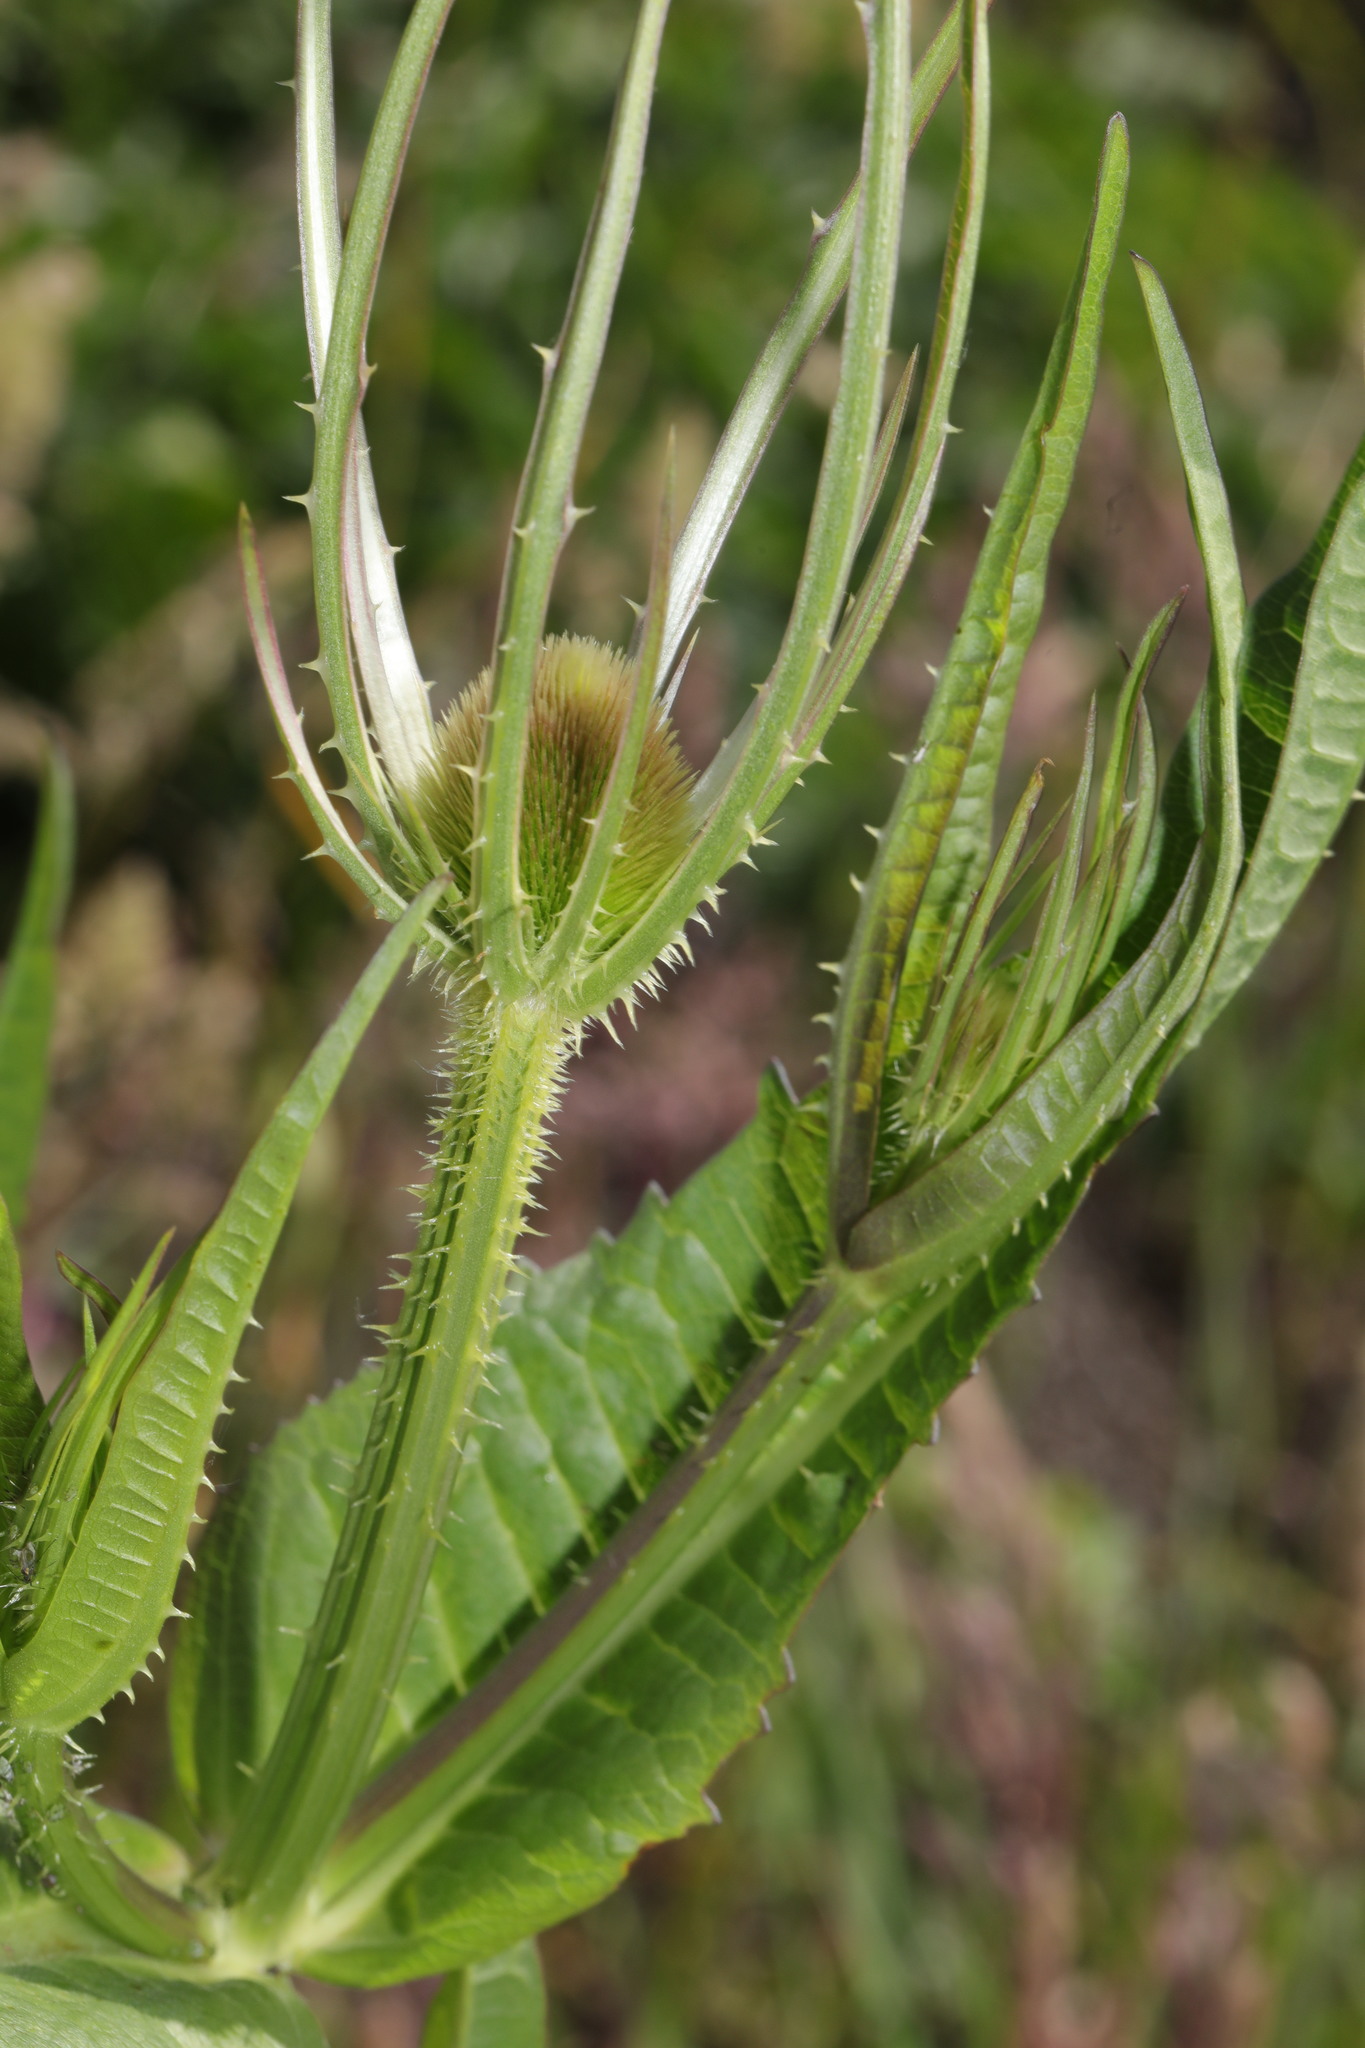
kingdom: Plantae
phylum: Tracheophyta
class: Magnoliopsida
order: Dipsacales
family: Caprifoliaceae
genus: Dipsacus
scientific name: Dipsacus fullonum
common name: Teasel
